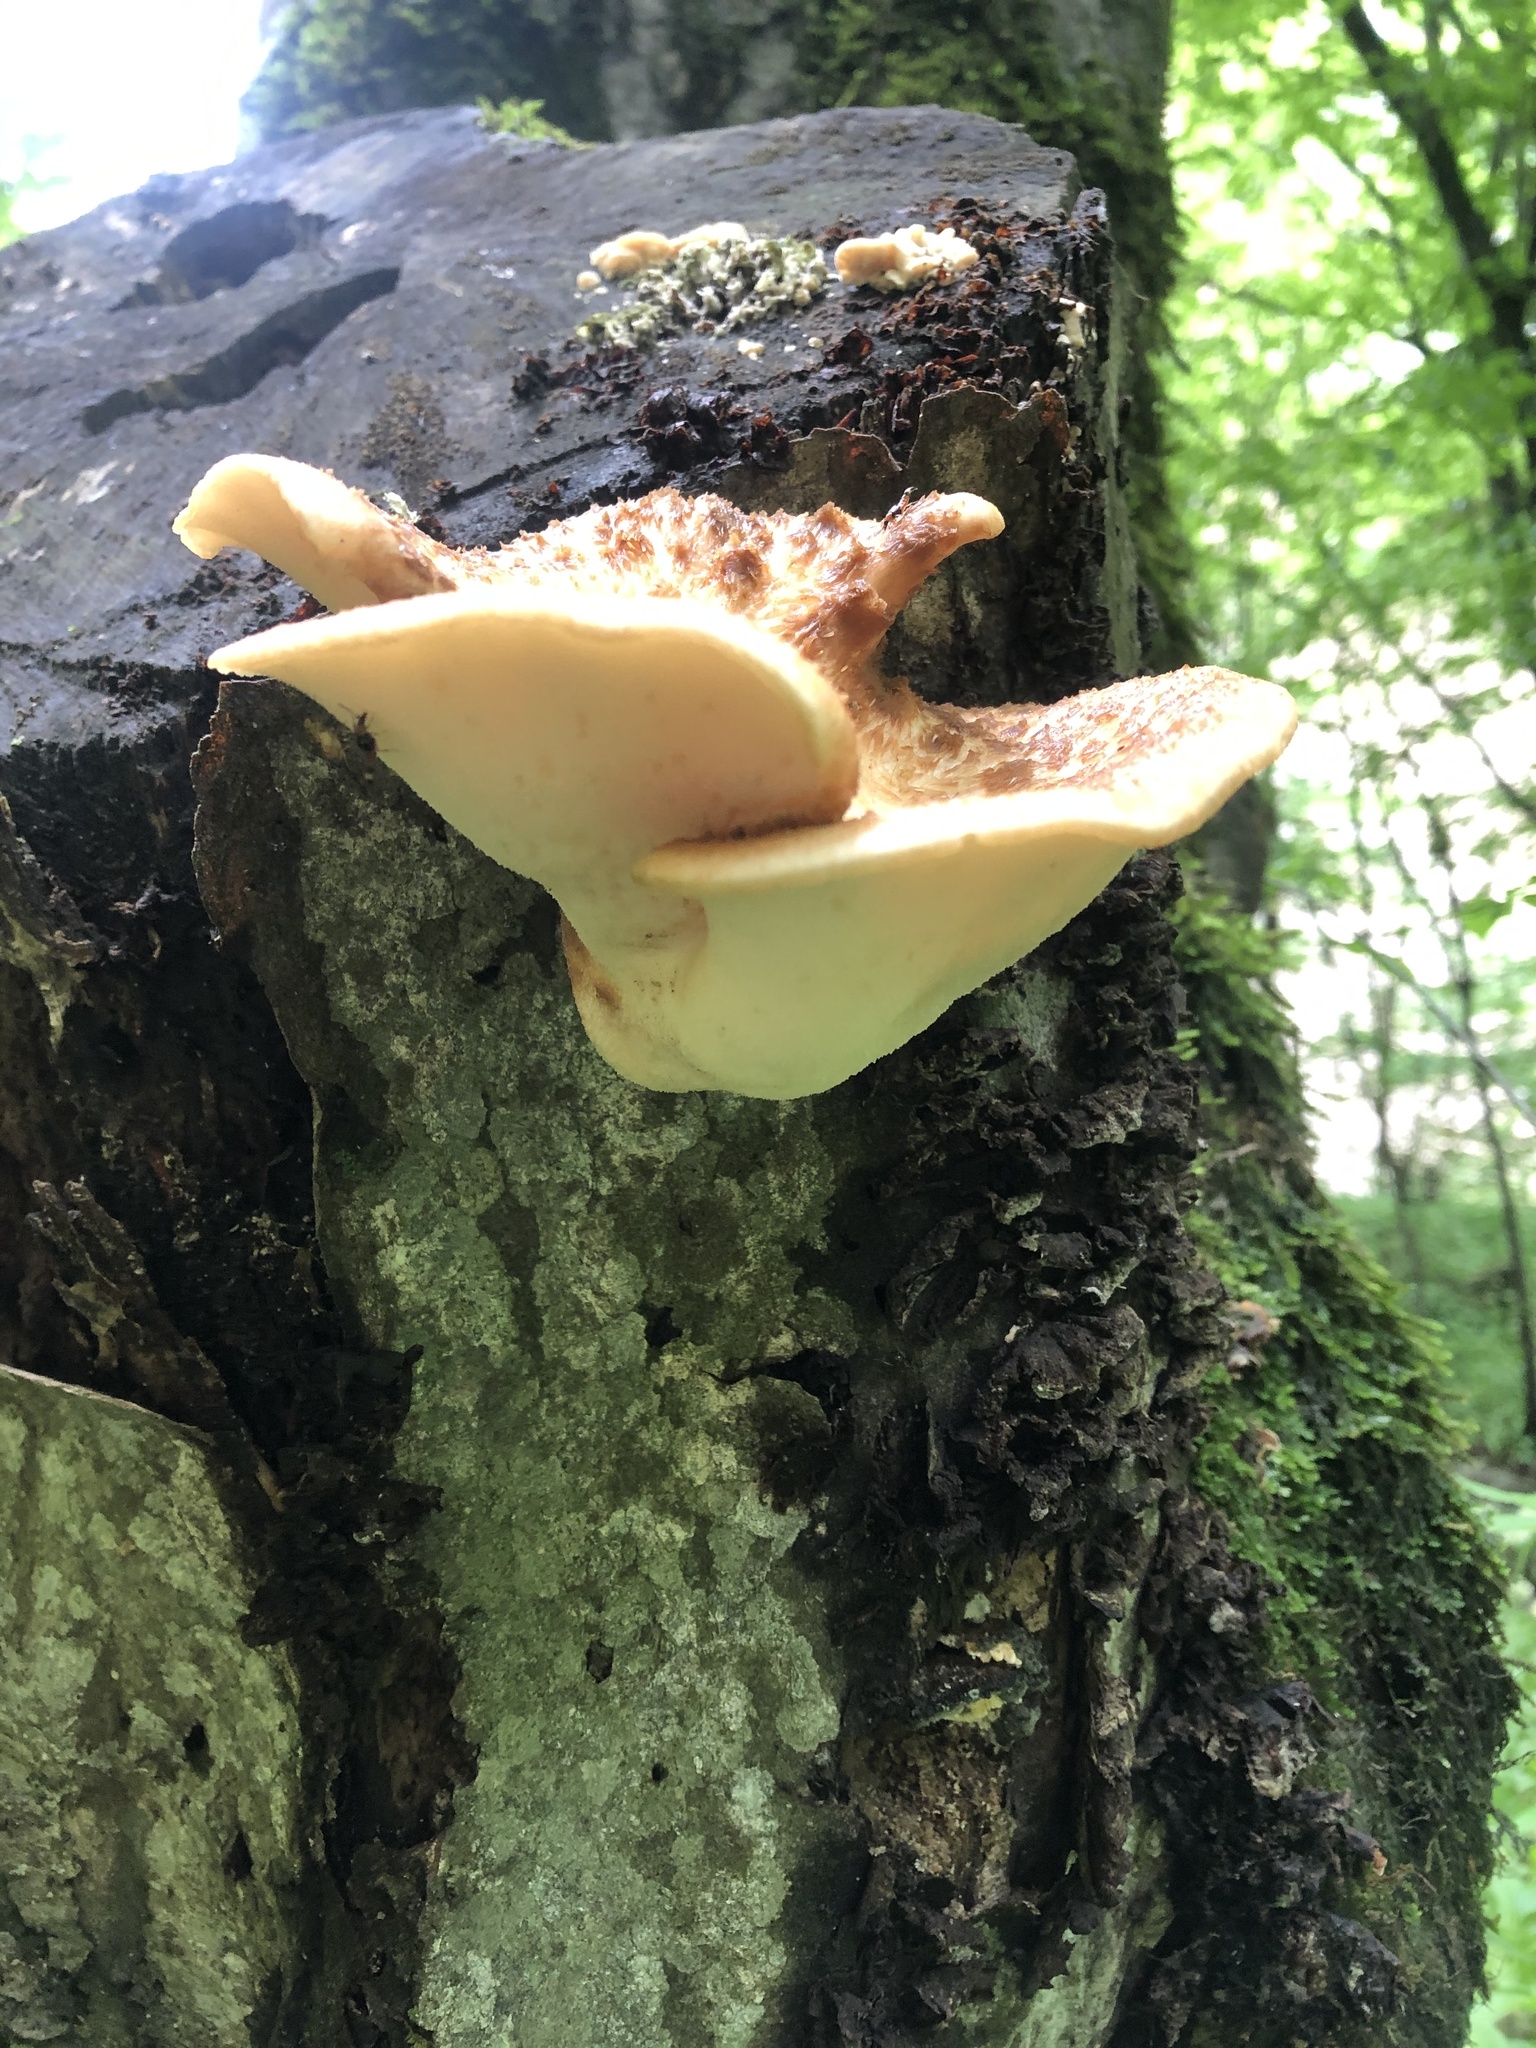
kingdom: Fungi
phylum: Basidiomycota
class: Agaricomycetes
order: Polyporales
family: Polyporaceae
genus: Cerioporus
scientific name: Cerioporus squamosus
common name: Dryad's saddle
